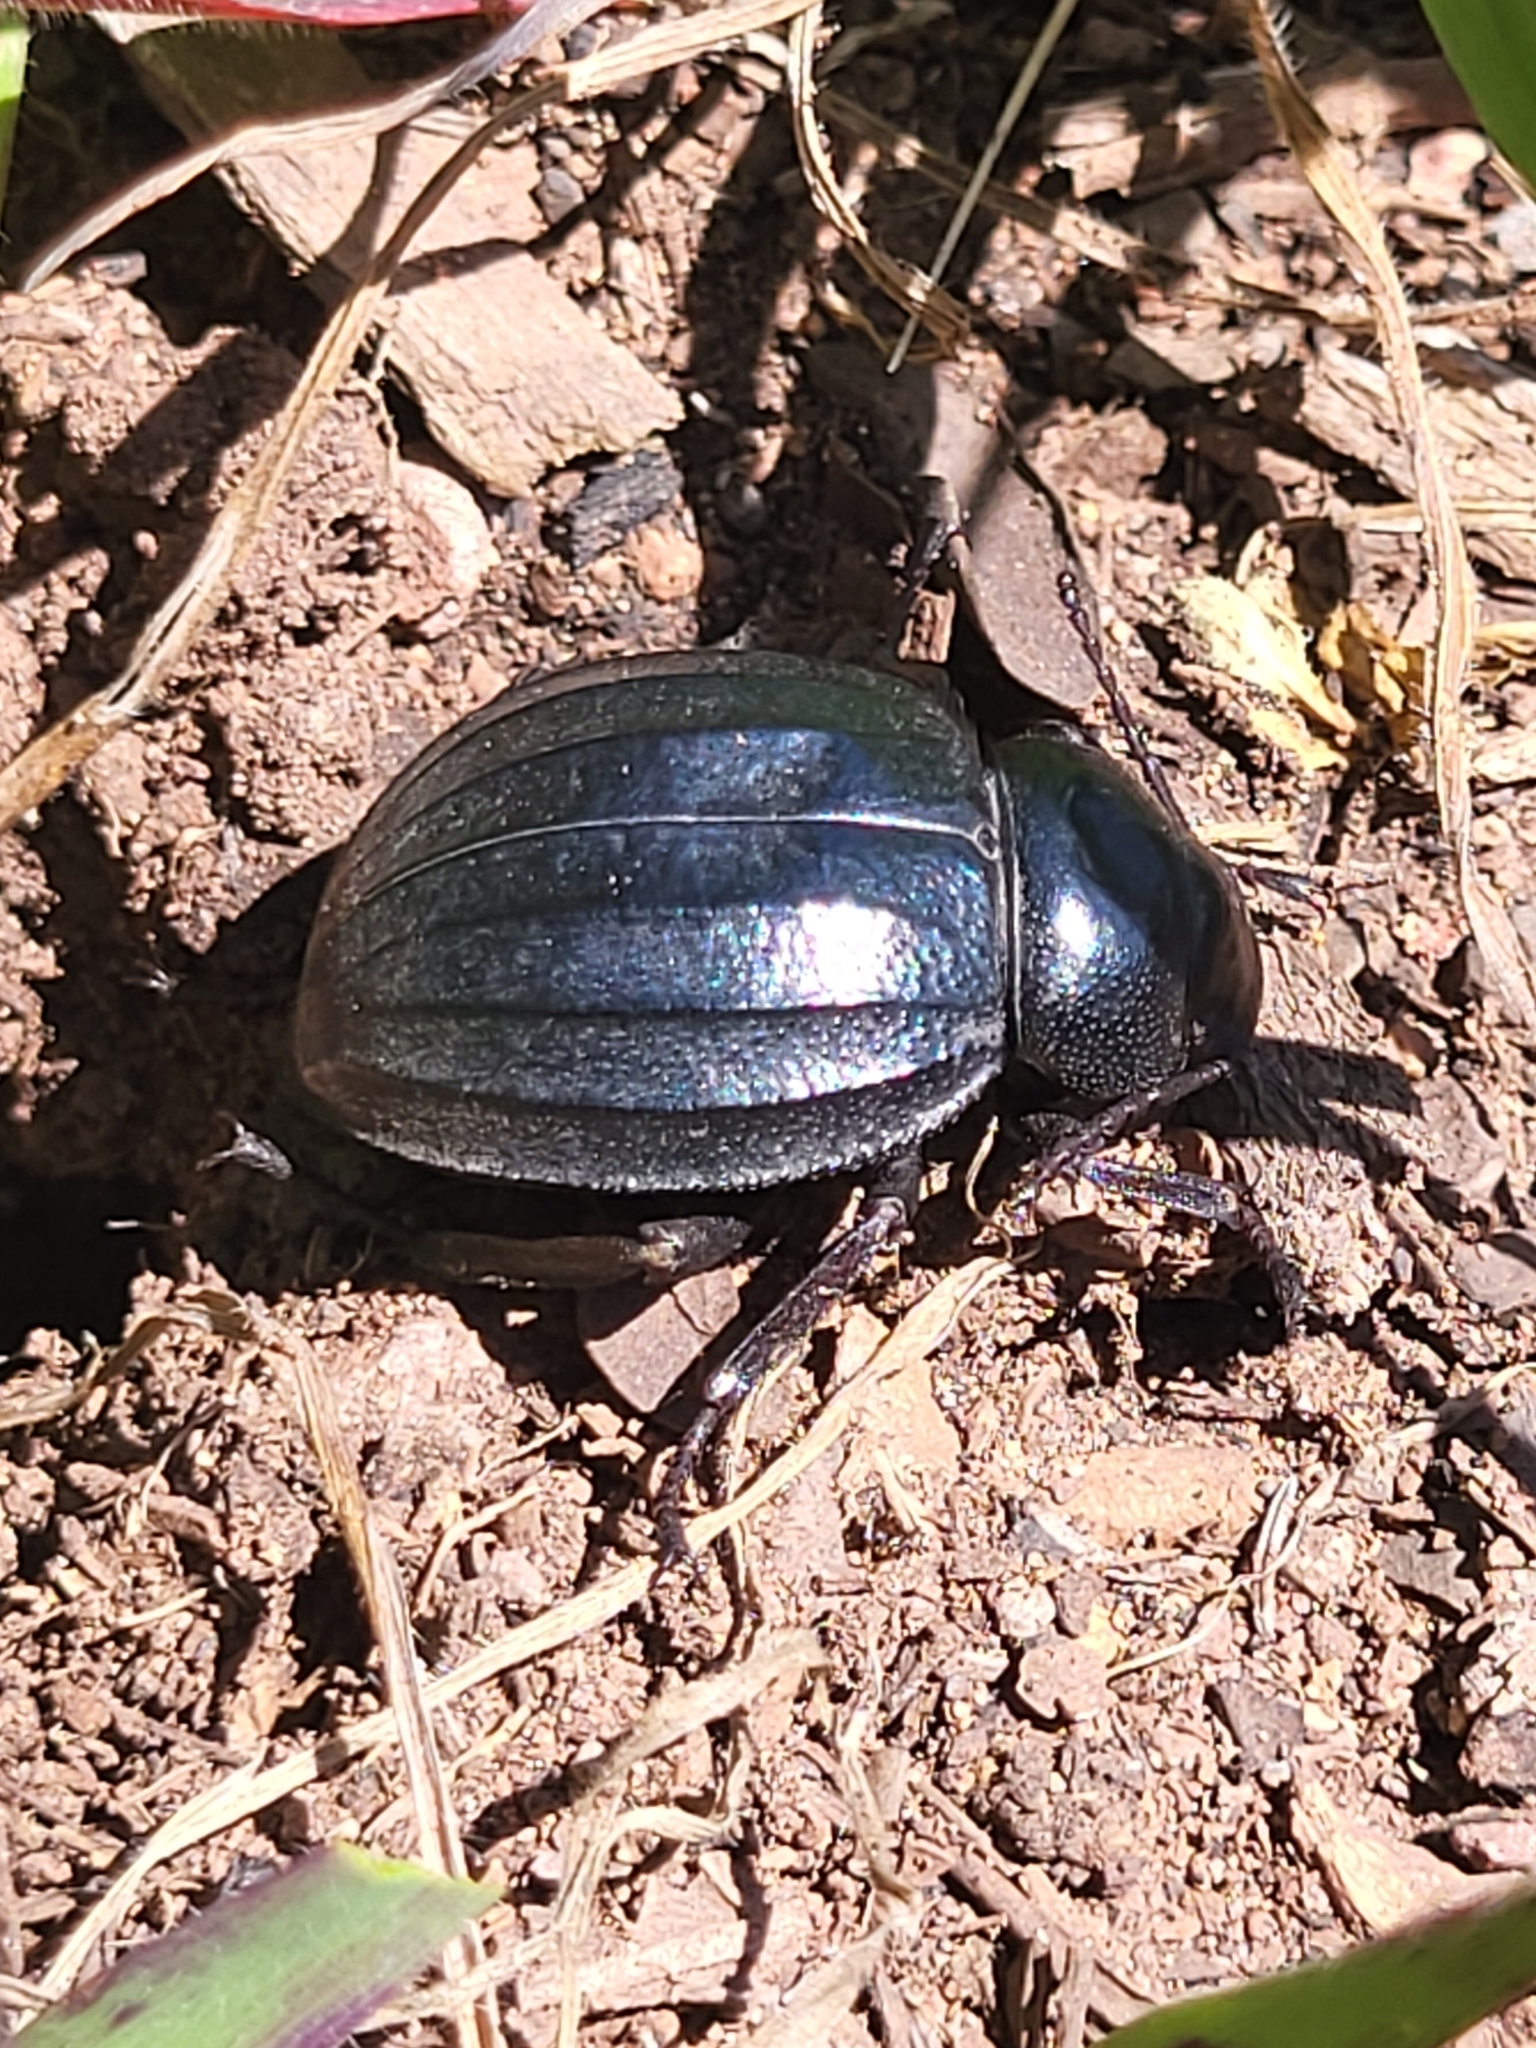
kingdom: Animalia
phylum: Arthropoda
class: Insecta
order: Coleoptera
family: Tenebrionidae
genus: Pimelia
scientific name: Pimelia laevigata
